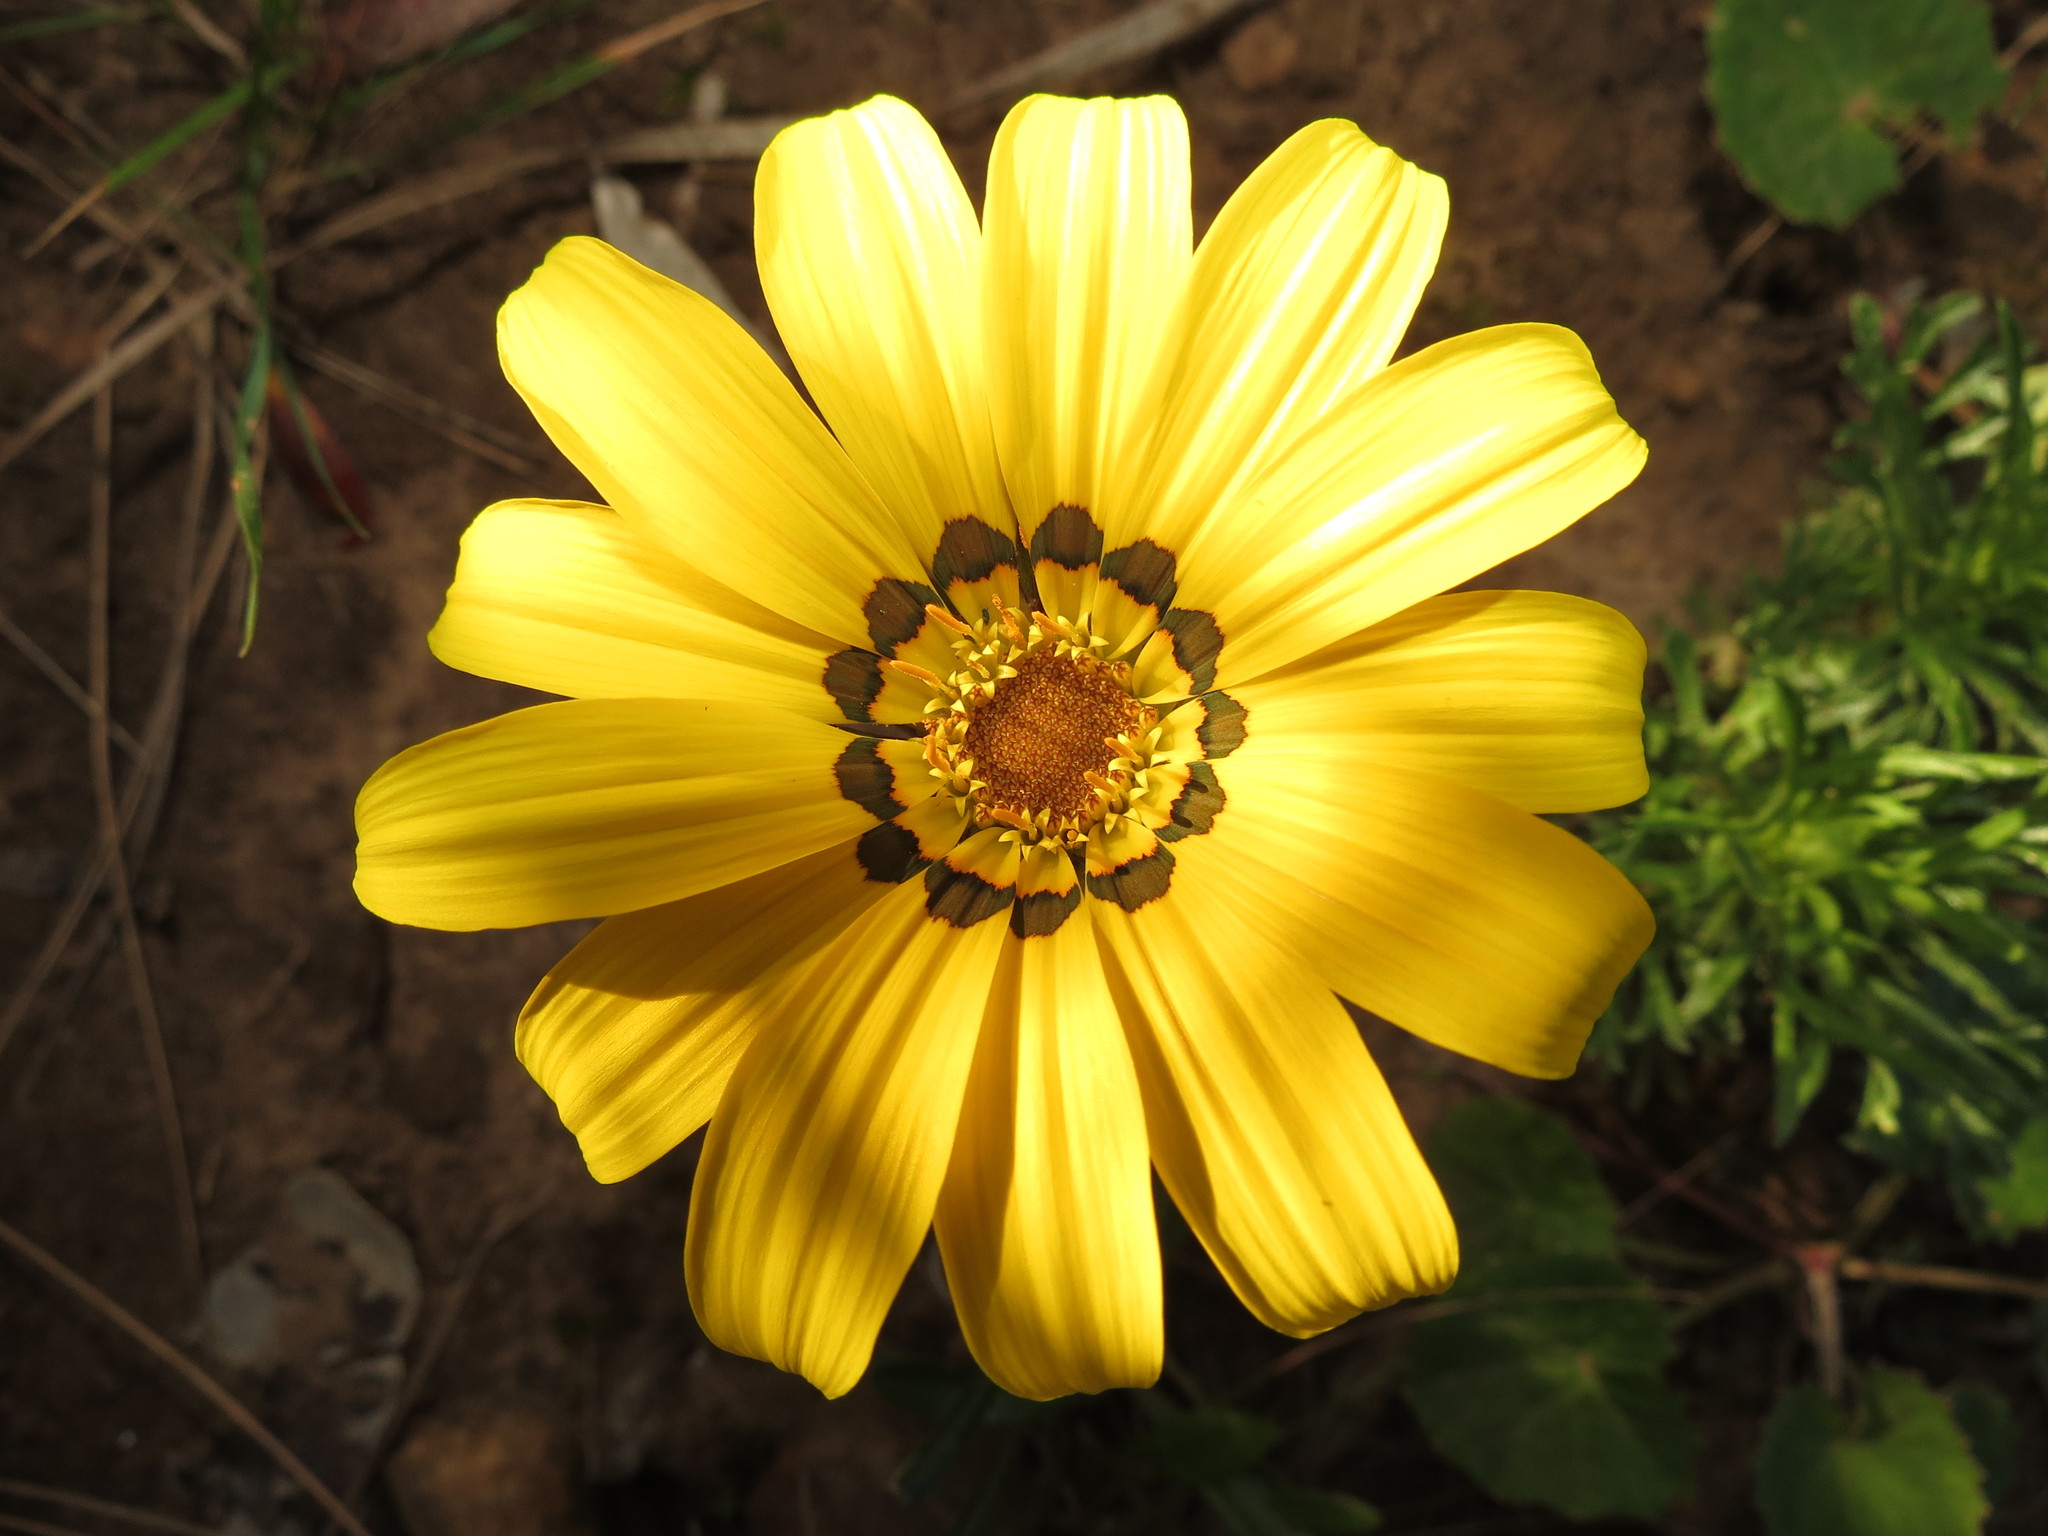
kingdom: Plantae
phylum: Tracheophyta
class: Magnoliopsida
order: Asterales
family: Asteraceae
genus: Gazania
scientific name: Gazania krebsiana
